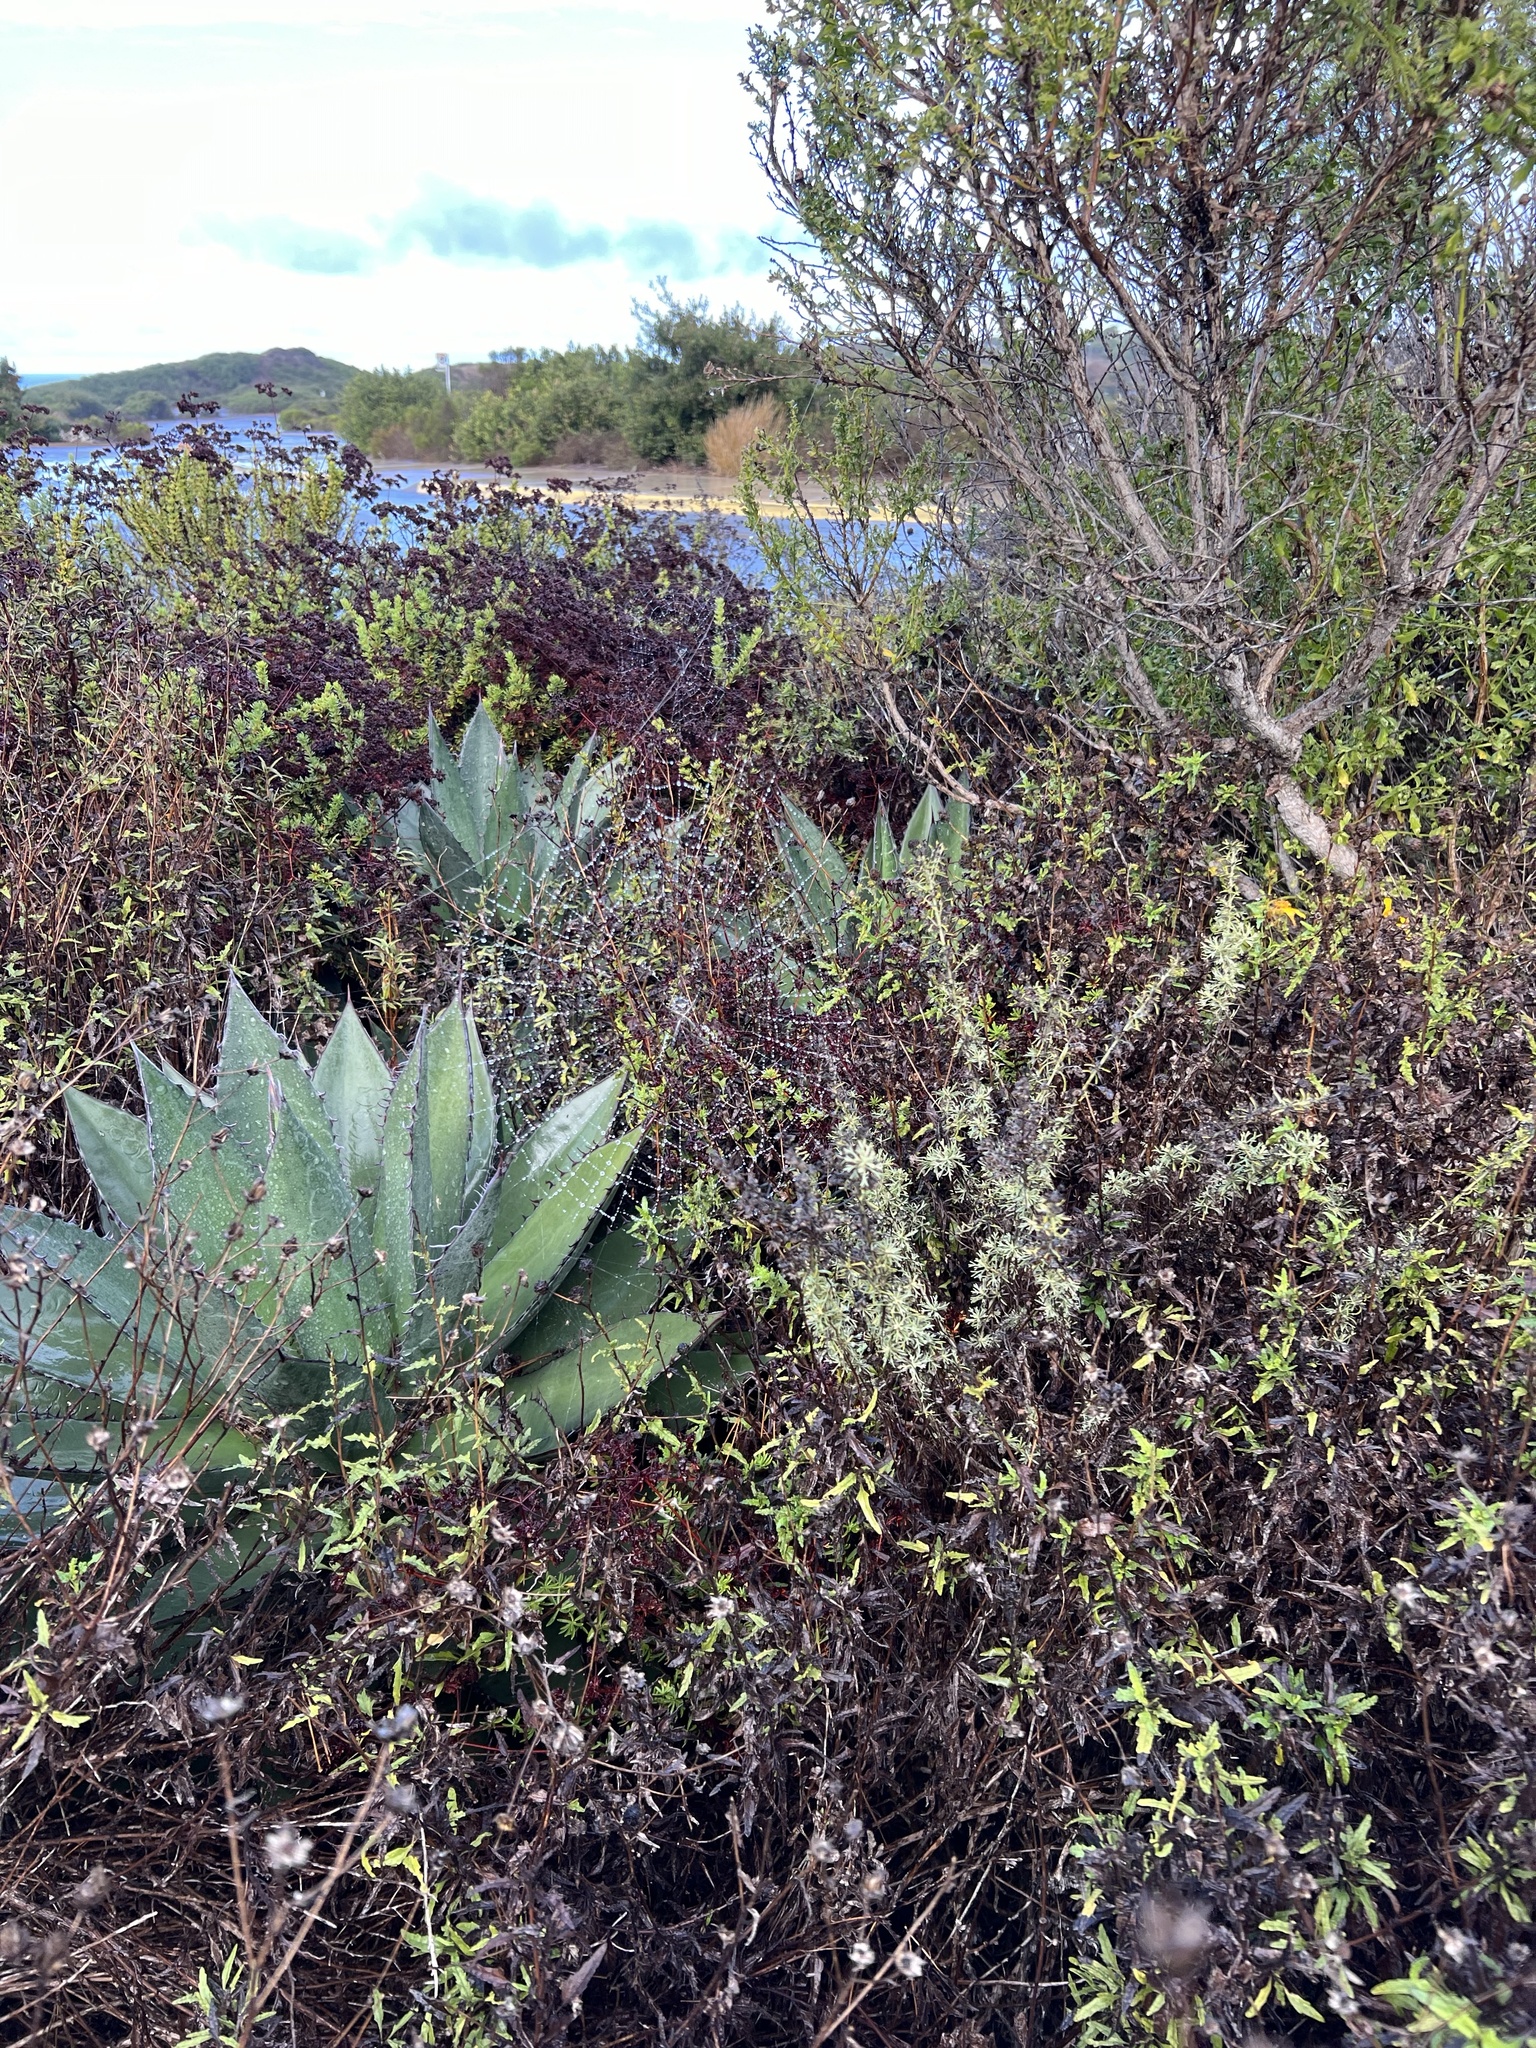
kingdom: Animalia
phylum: Arthropoda
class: Arachnida
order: Araneae
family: Araneidae
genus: Argiope
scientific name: Argiope argentata
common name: Orb weavers
